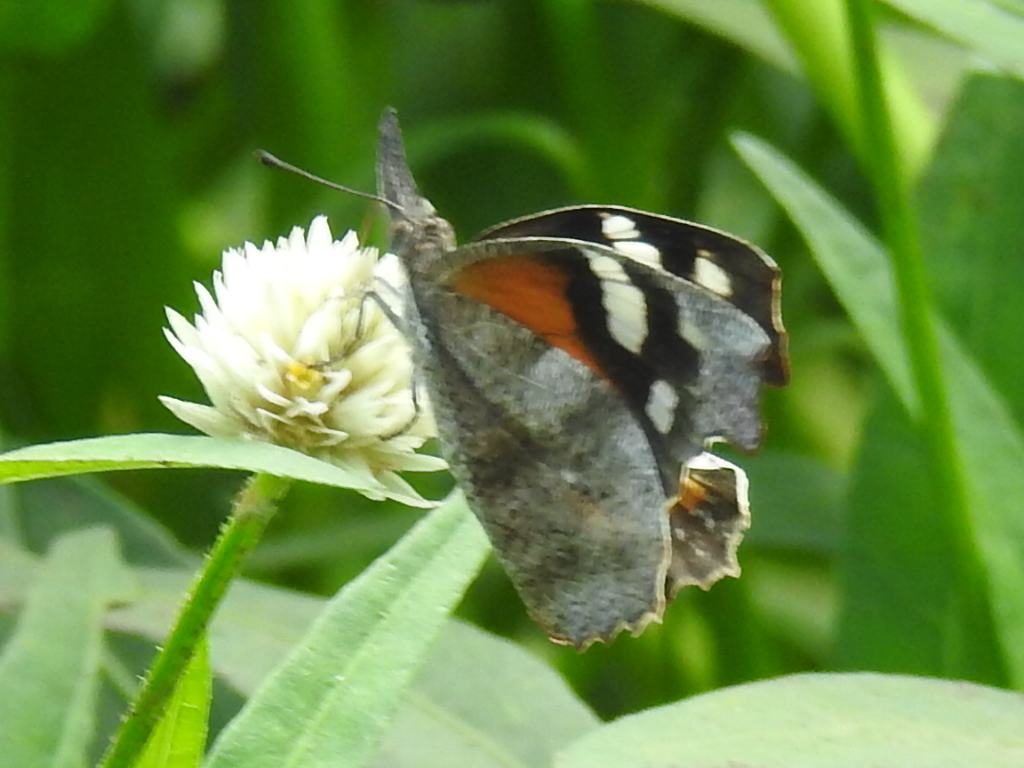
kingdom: Animalia
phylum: Arthropoda
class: Insecta
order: Lepidoptera
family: Nymphalidae
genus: Libytheana
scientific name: Libytheana carinenta
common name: American snout
